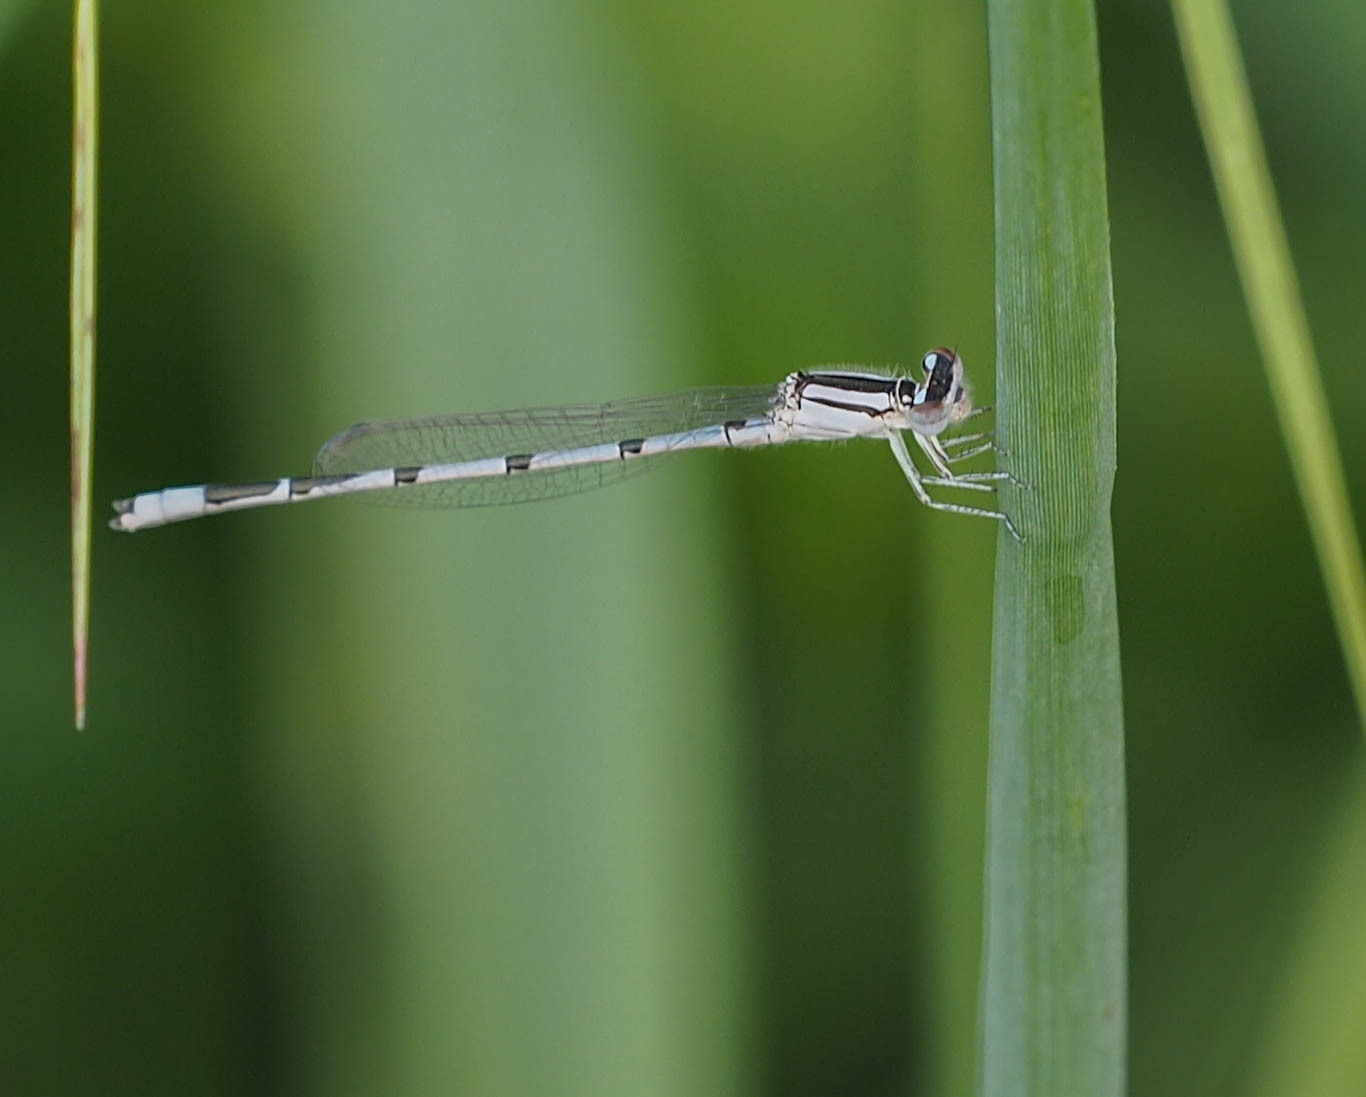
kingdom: Animalia
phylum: Arthropoda
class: Insecta
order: Odonata
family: Coenagrionidae
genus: Enallagma
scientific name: Enallagma civile
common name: Damselfly
